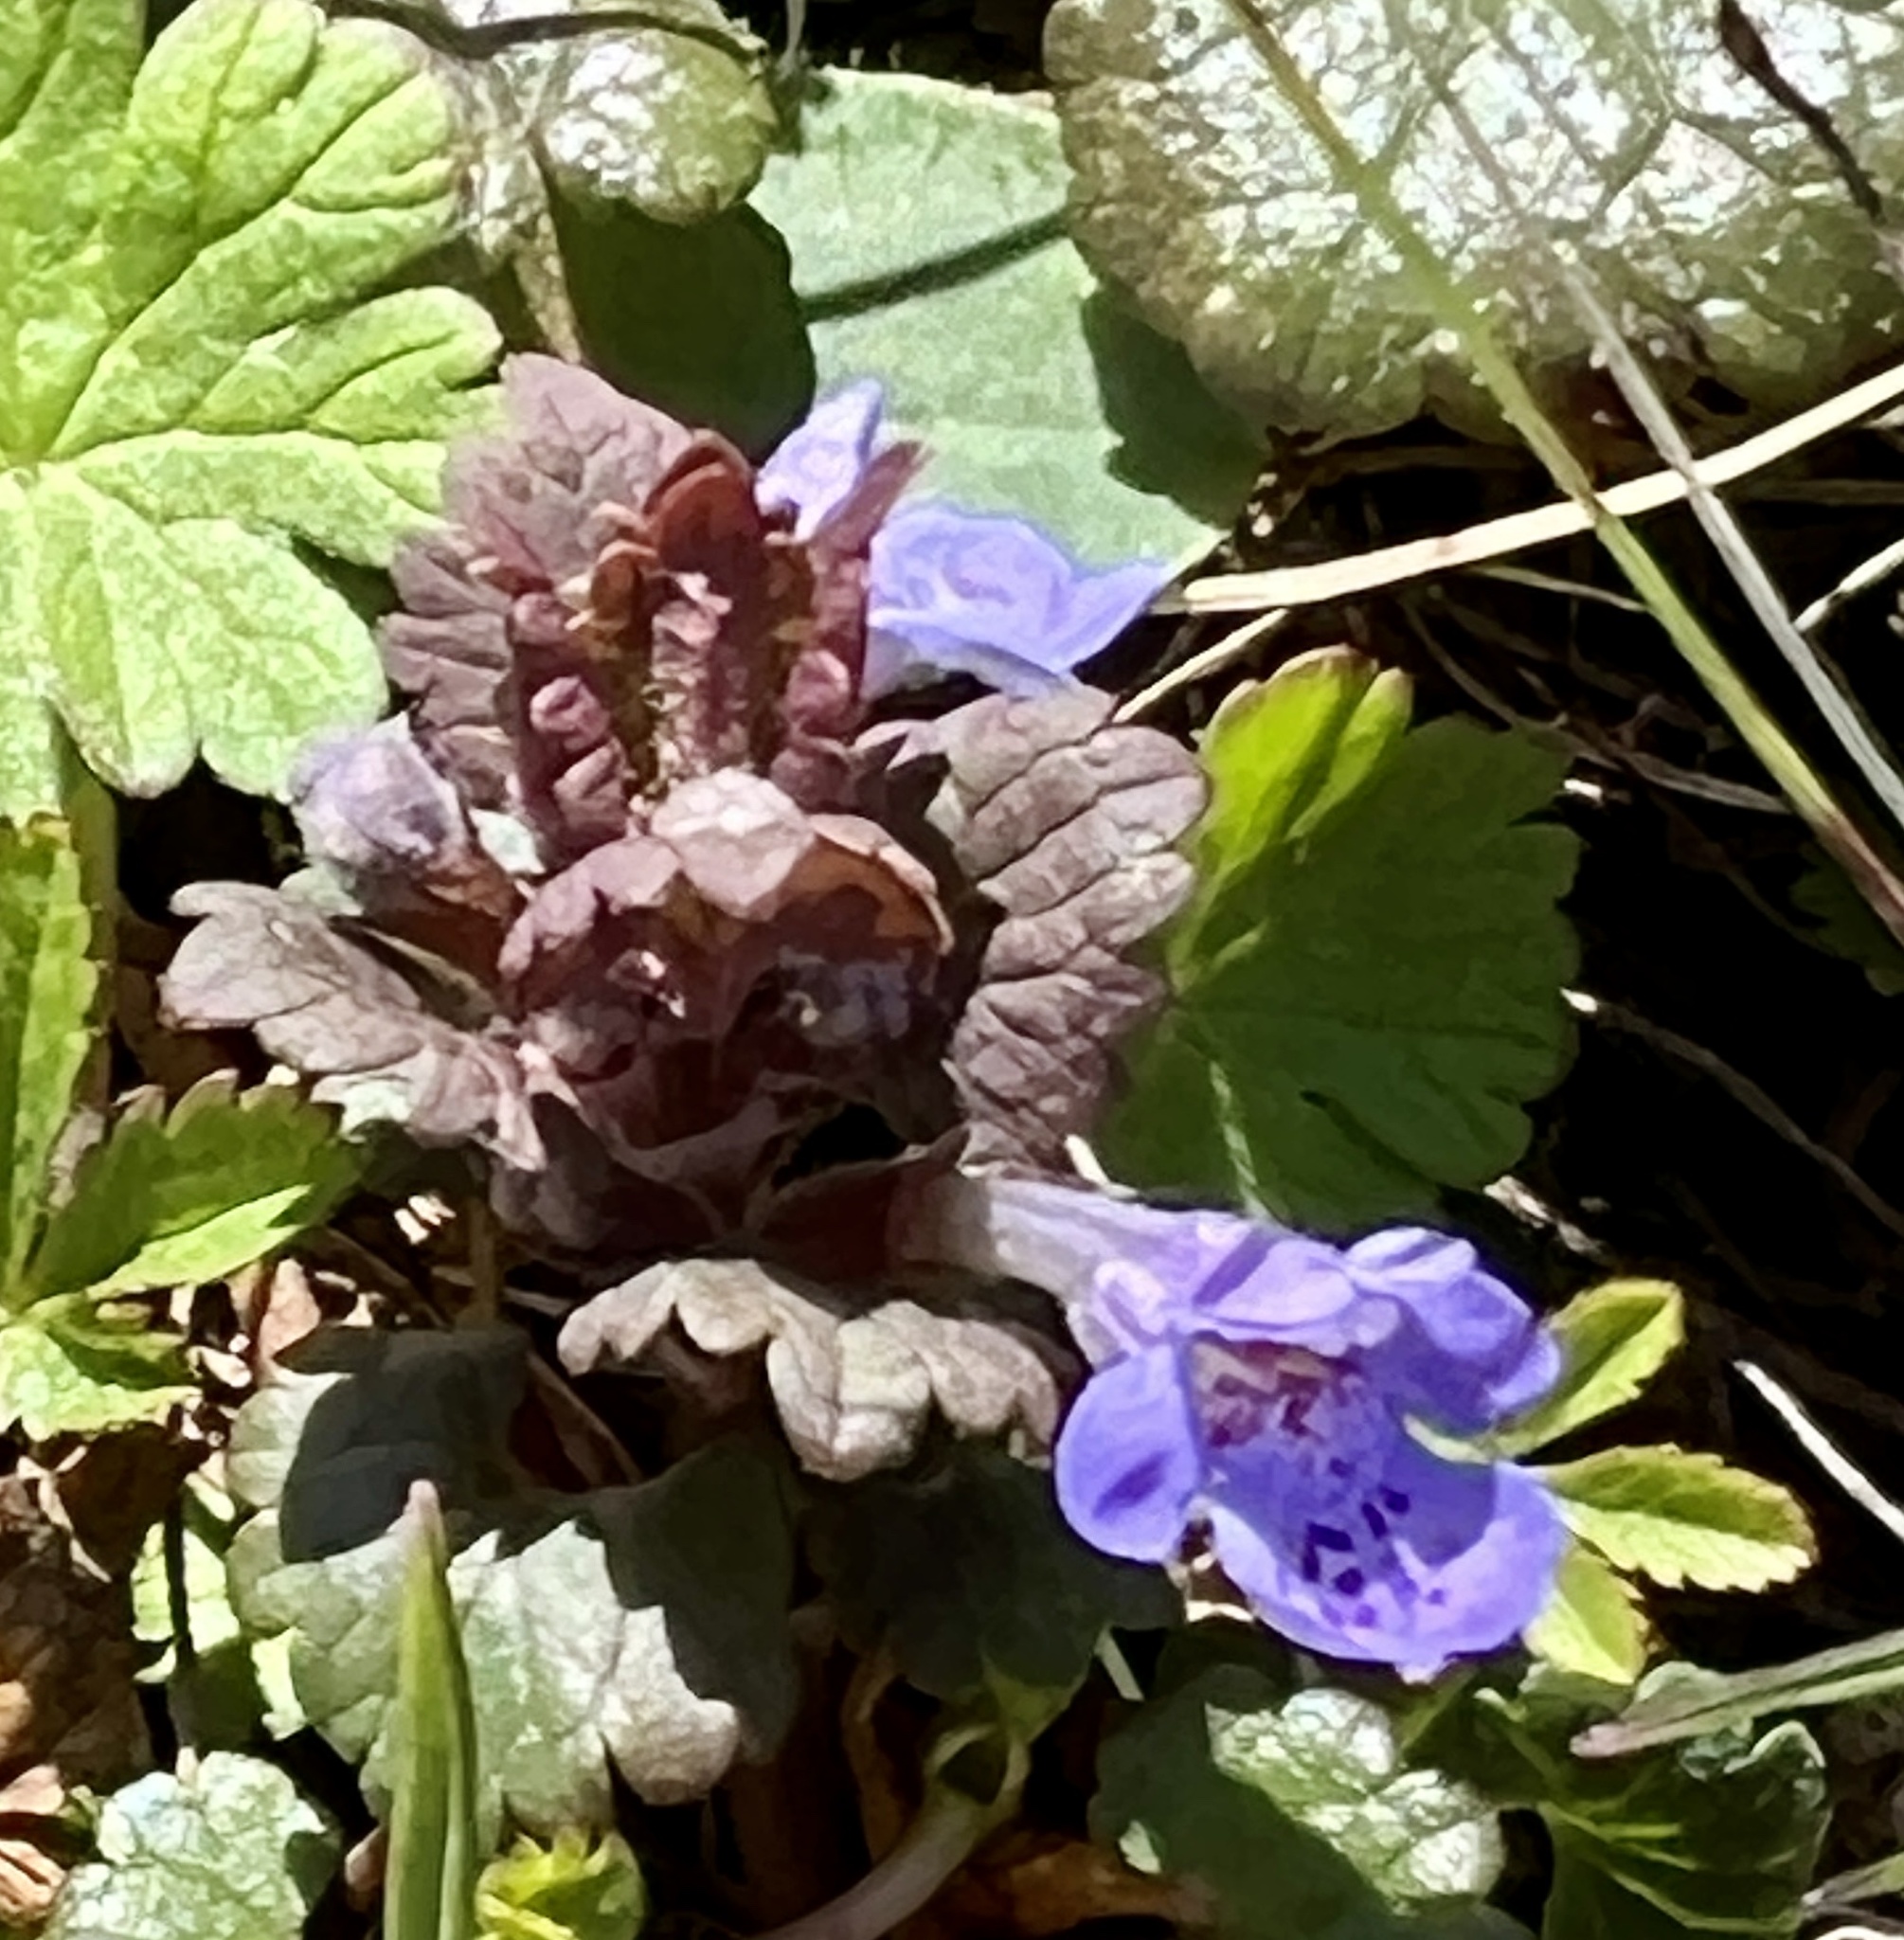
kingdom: Plantae
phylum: Tracheophyta
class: Magnoliopsida
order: Lamiales
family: Lamiaceae
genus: Glechoma
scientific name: Glechoma hederacea
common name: Ground ivy
